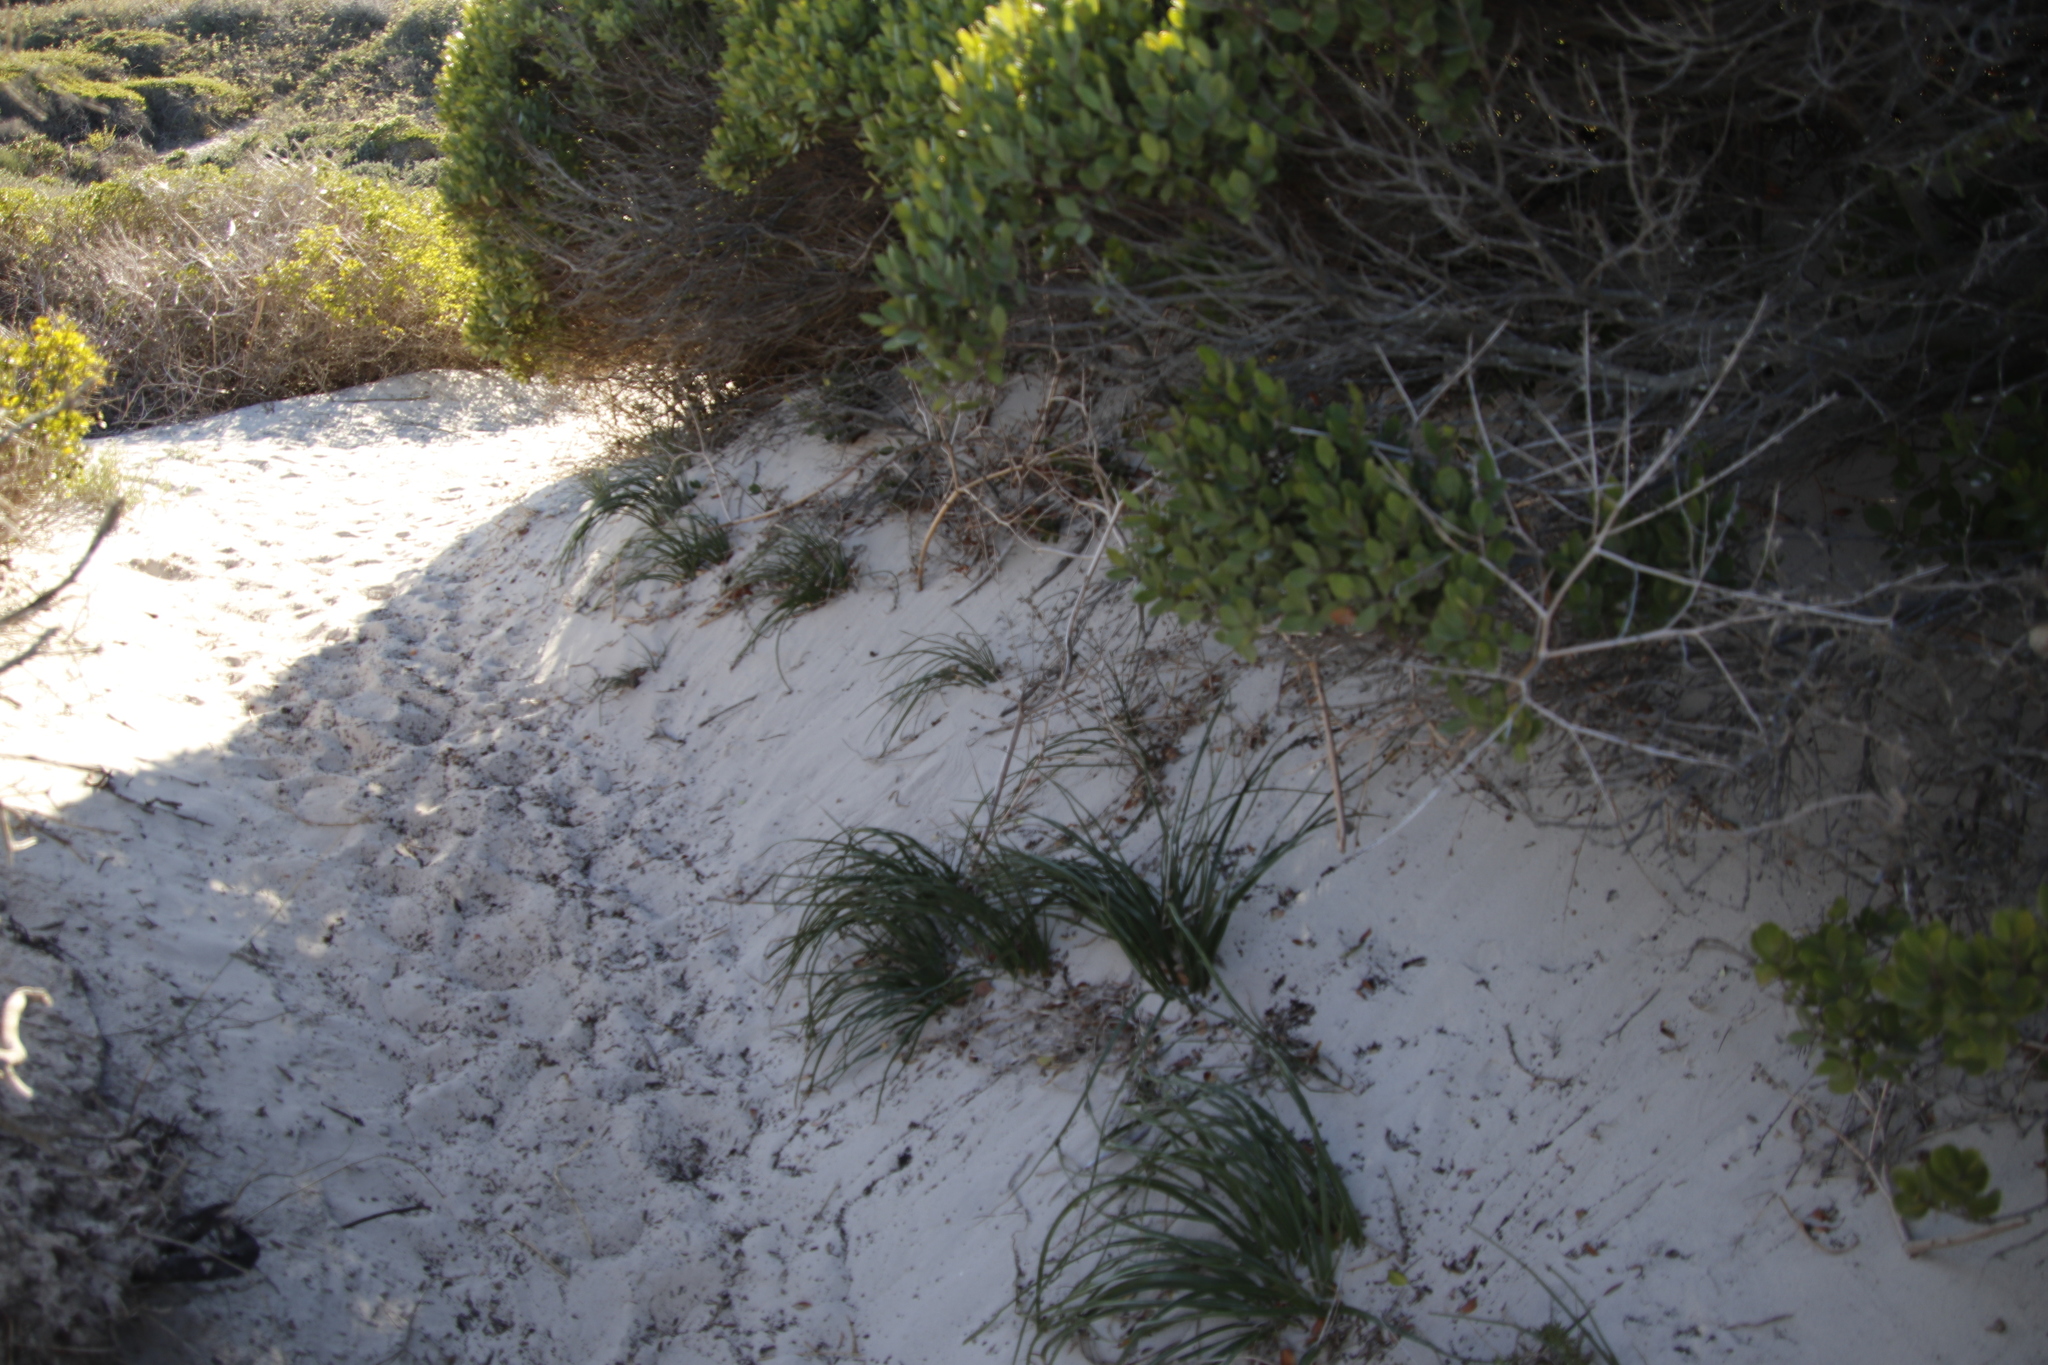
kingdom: Plantae
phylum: Tracheophyta
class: Liliopsida
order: Asparagales
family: Asphodelaceae
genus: Trachyandra
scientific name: Trachyandra divaricata
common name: Dune onionweed
